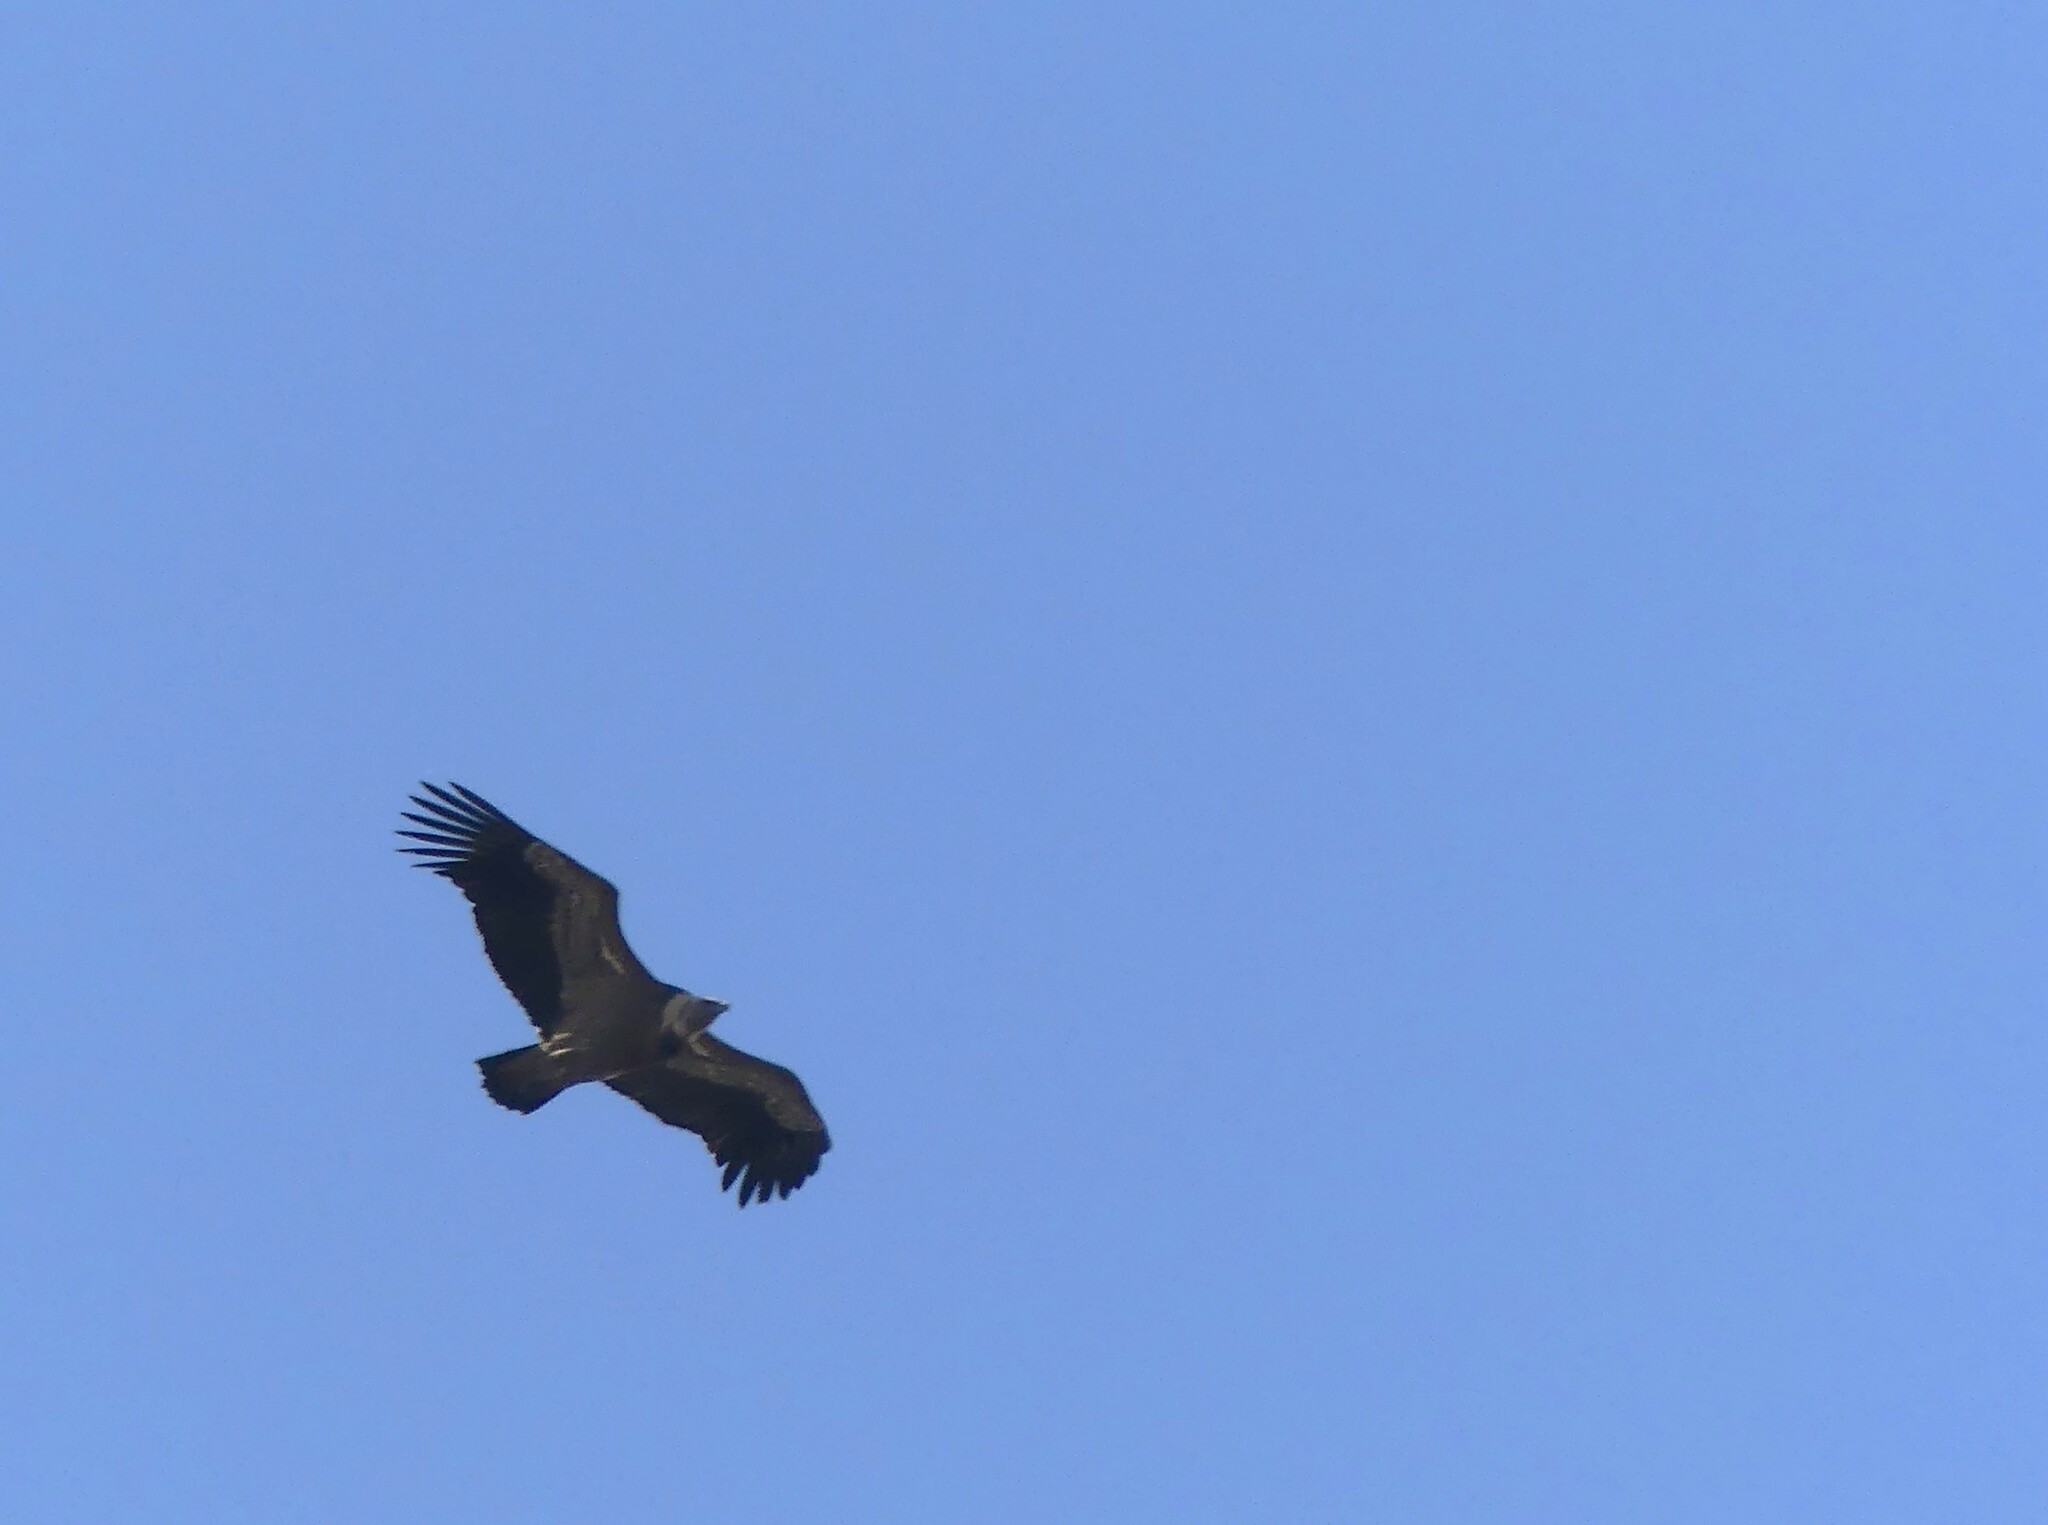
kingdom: Animalia
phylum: Chordata
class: Aves
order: Accipitriformes
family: Accipitridae
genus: Gyps
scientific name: Gyps fulvus
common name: Griffon vulture
